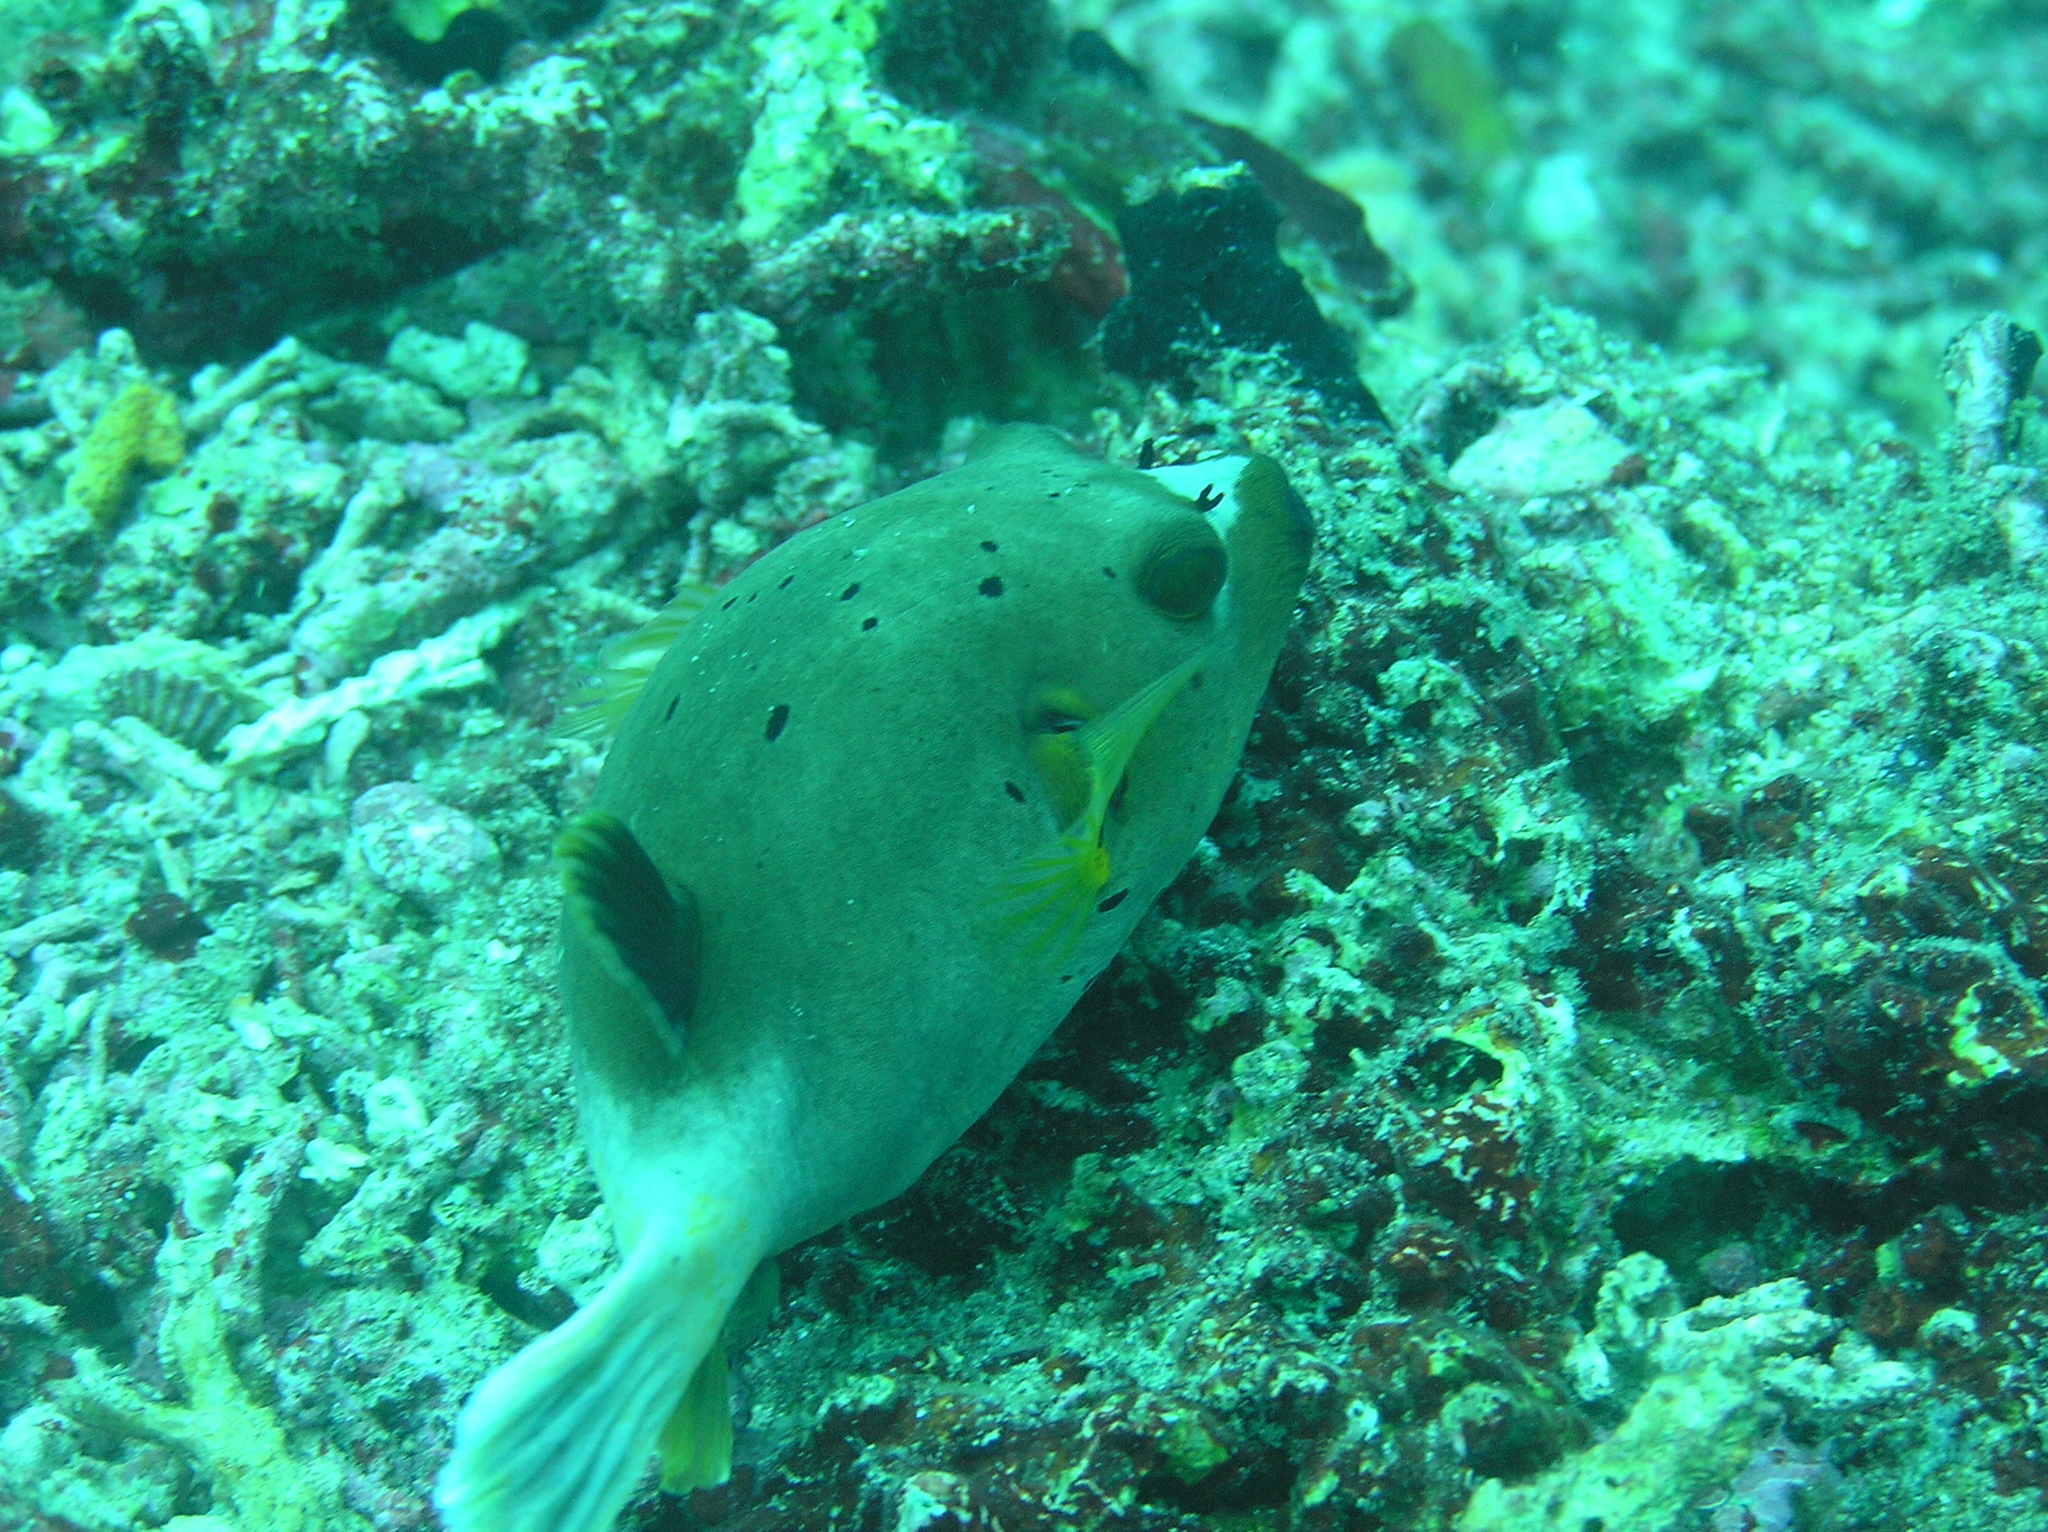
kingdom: Animalia
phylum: Chordata
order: Tetraodontiformes
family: Tetraodontidae
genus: Arothron
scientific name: Arothron nigropunctatus
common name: Black spotted blow fish
